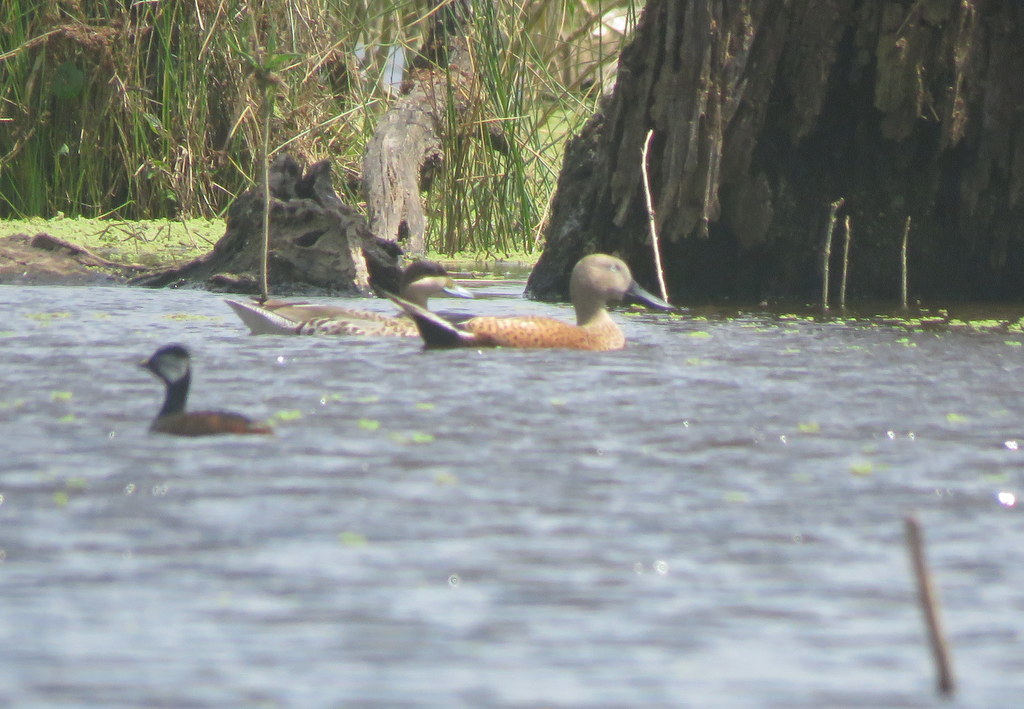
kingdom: Animalia
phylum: Chordata
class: Aves
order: Anseriformes
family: Anatidae
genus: Spatula
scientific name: Spatula platalea
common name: Red shoveler
